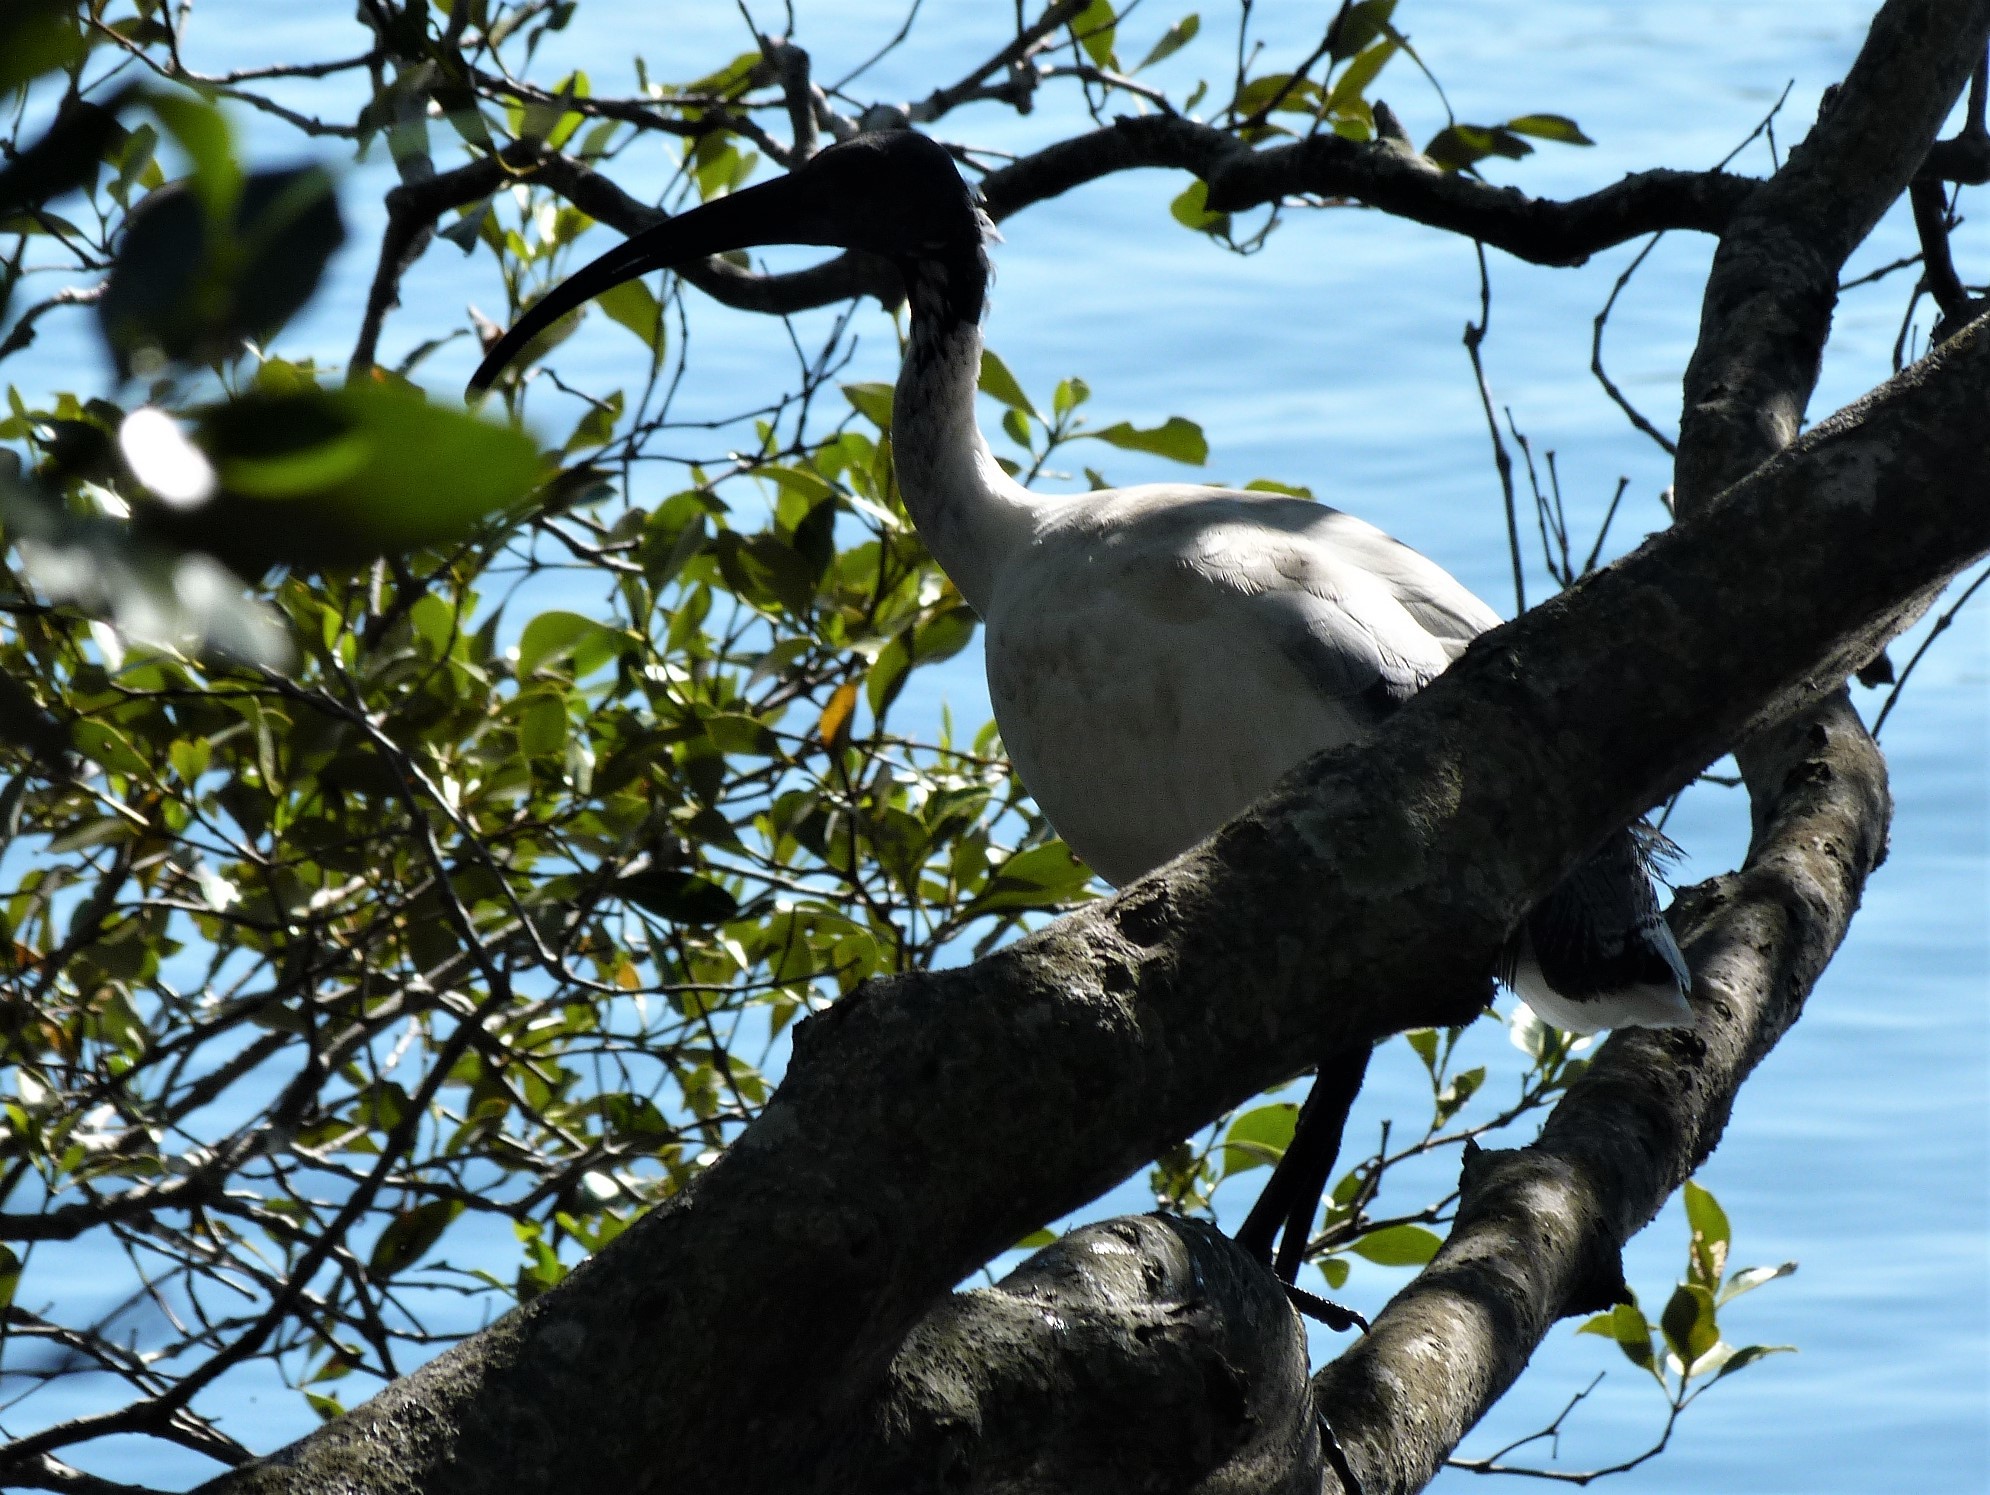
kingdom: Animalia
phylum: Chordata
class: Aves
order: Pelecaniformes
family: Threskiornithidae
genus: Threskiornis
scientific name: Threskiornis molucca
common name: Australian white ibis
